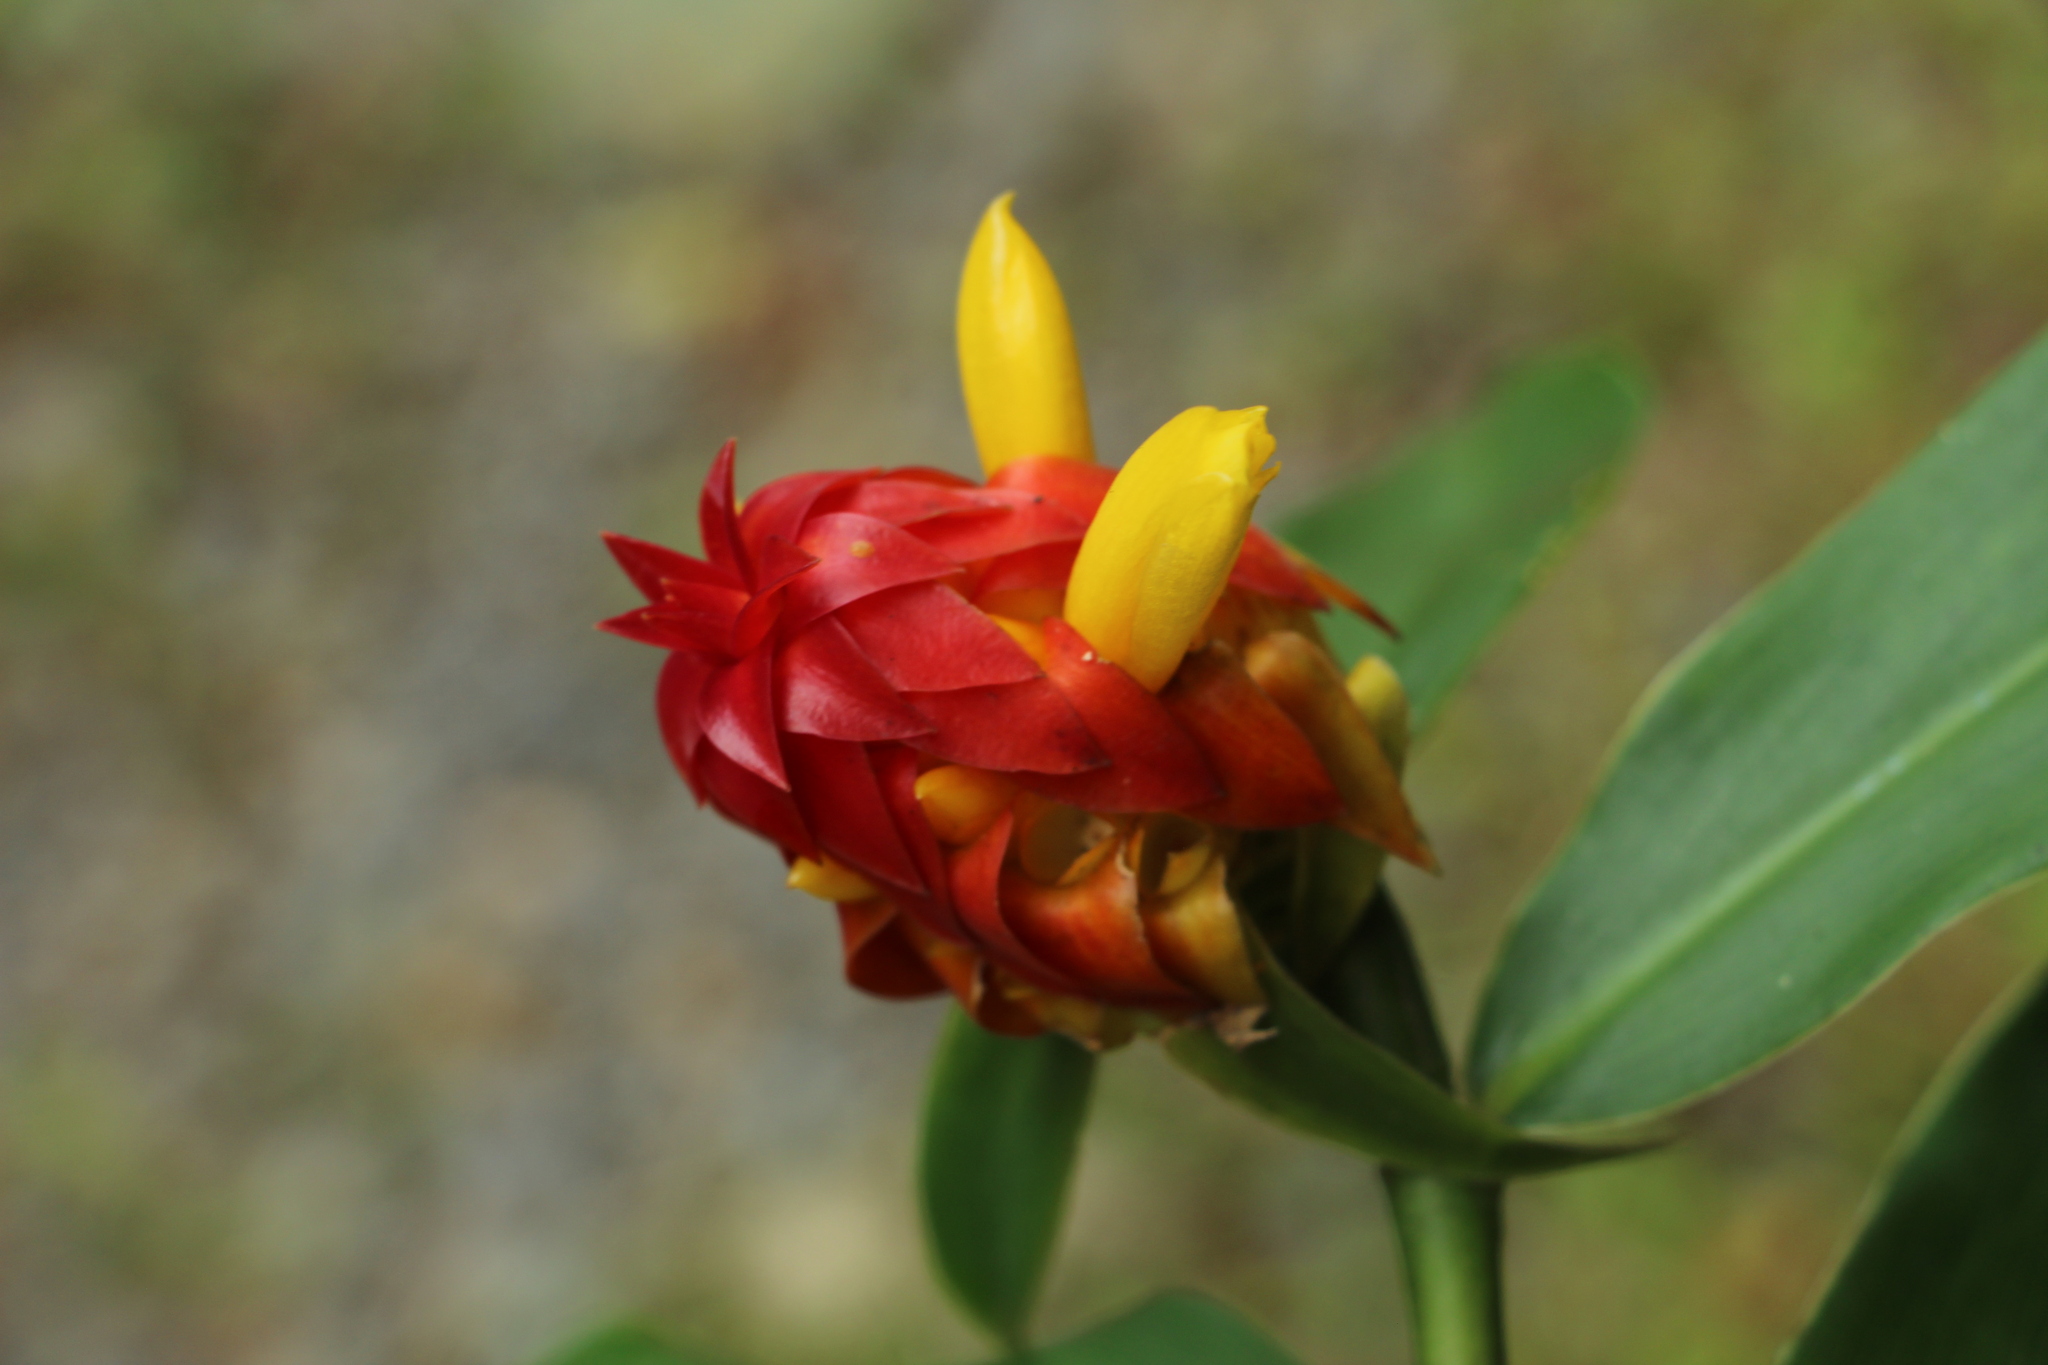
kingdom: Plantae
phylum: Tracheophyta
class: Liliopsida
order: Zingiberales
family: Costaceae
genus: Costus
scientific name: Costus comosus
